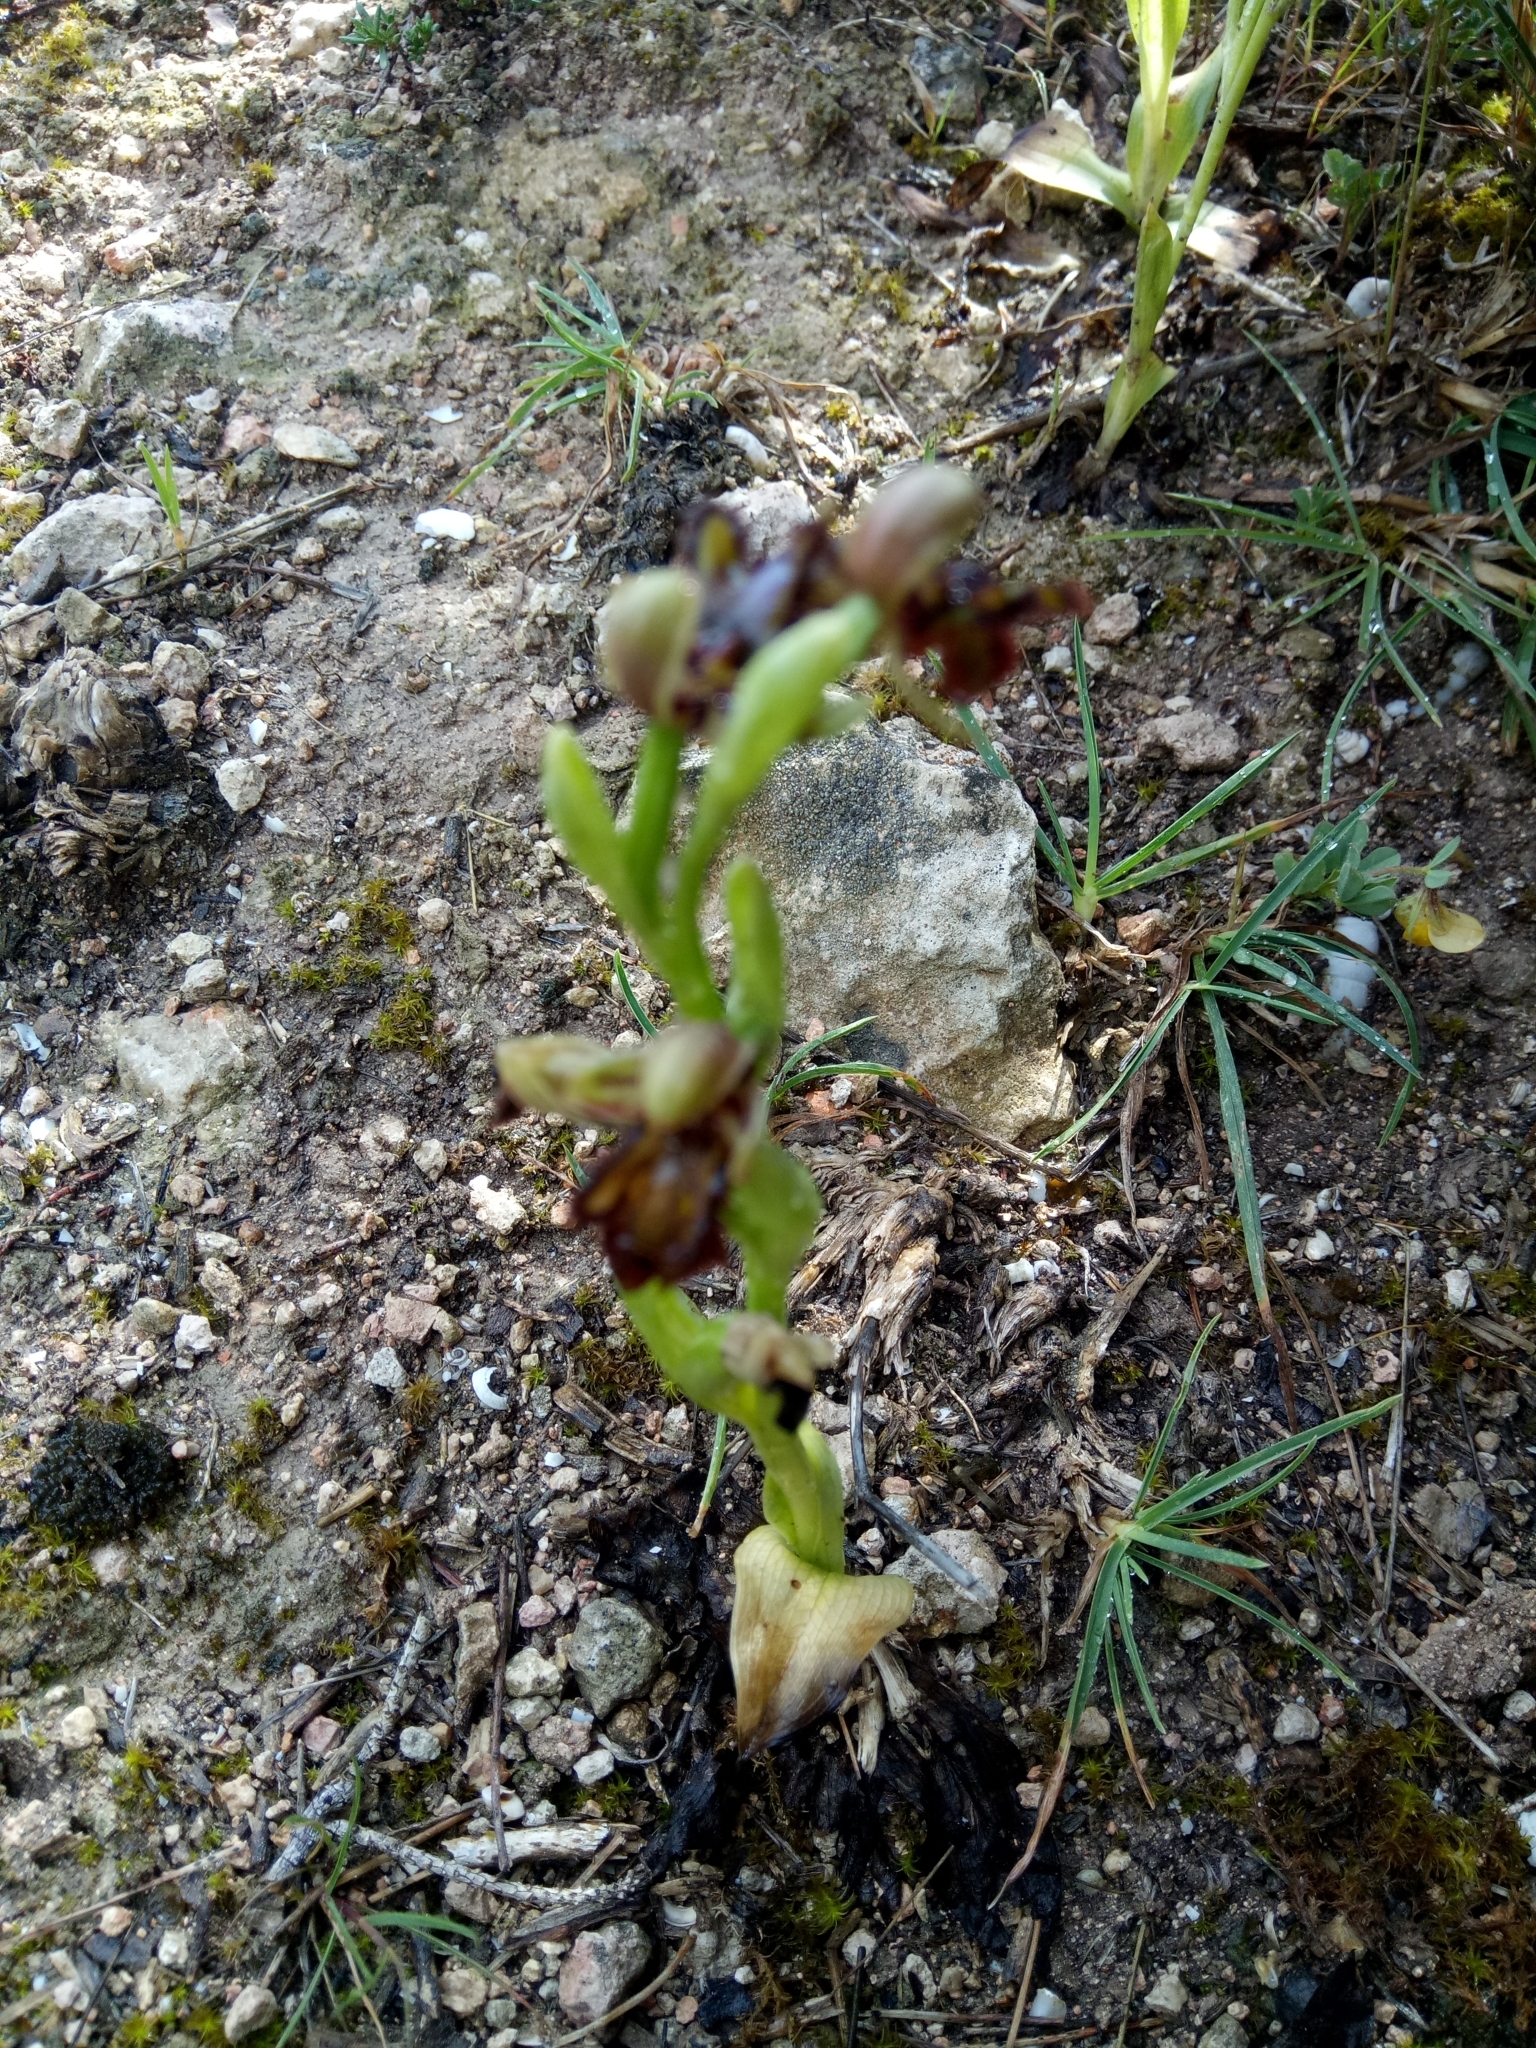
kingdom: Plantae
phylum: Tracheophyta
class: Liliopsida
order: Asparagales
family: Orchidaceae
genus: Ophrys
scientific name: Ophrys speculum
